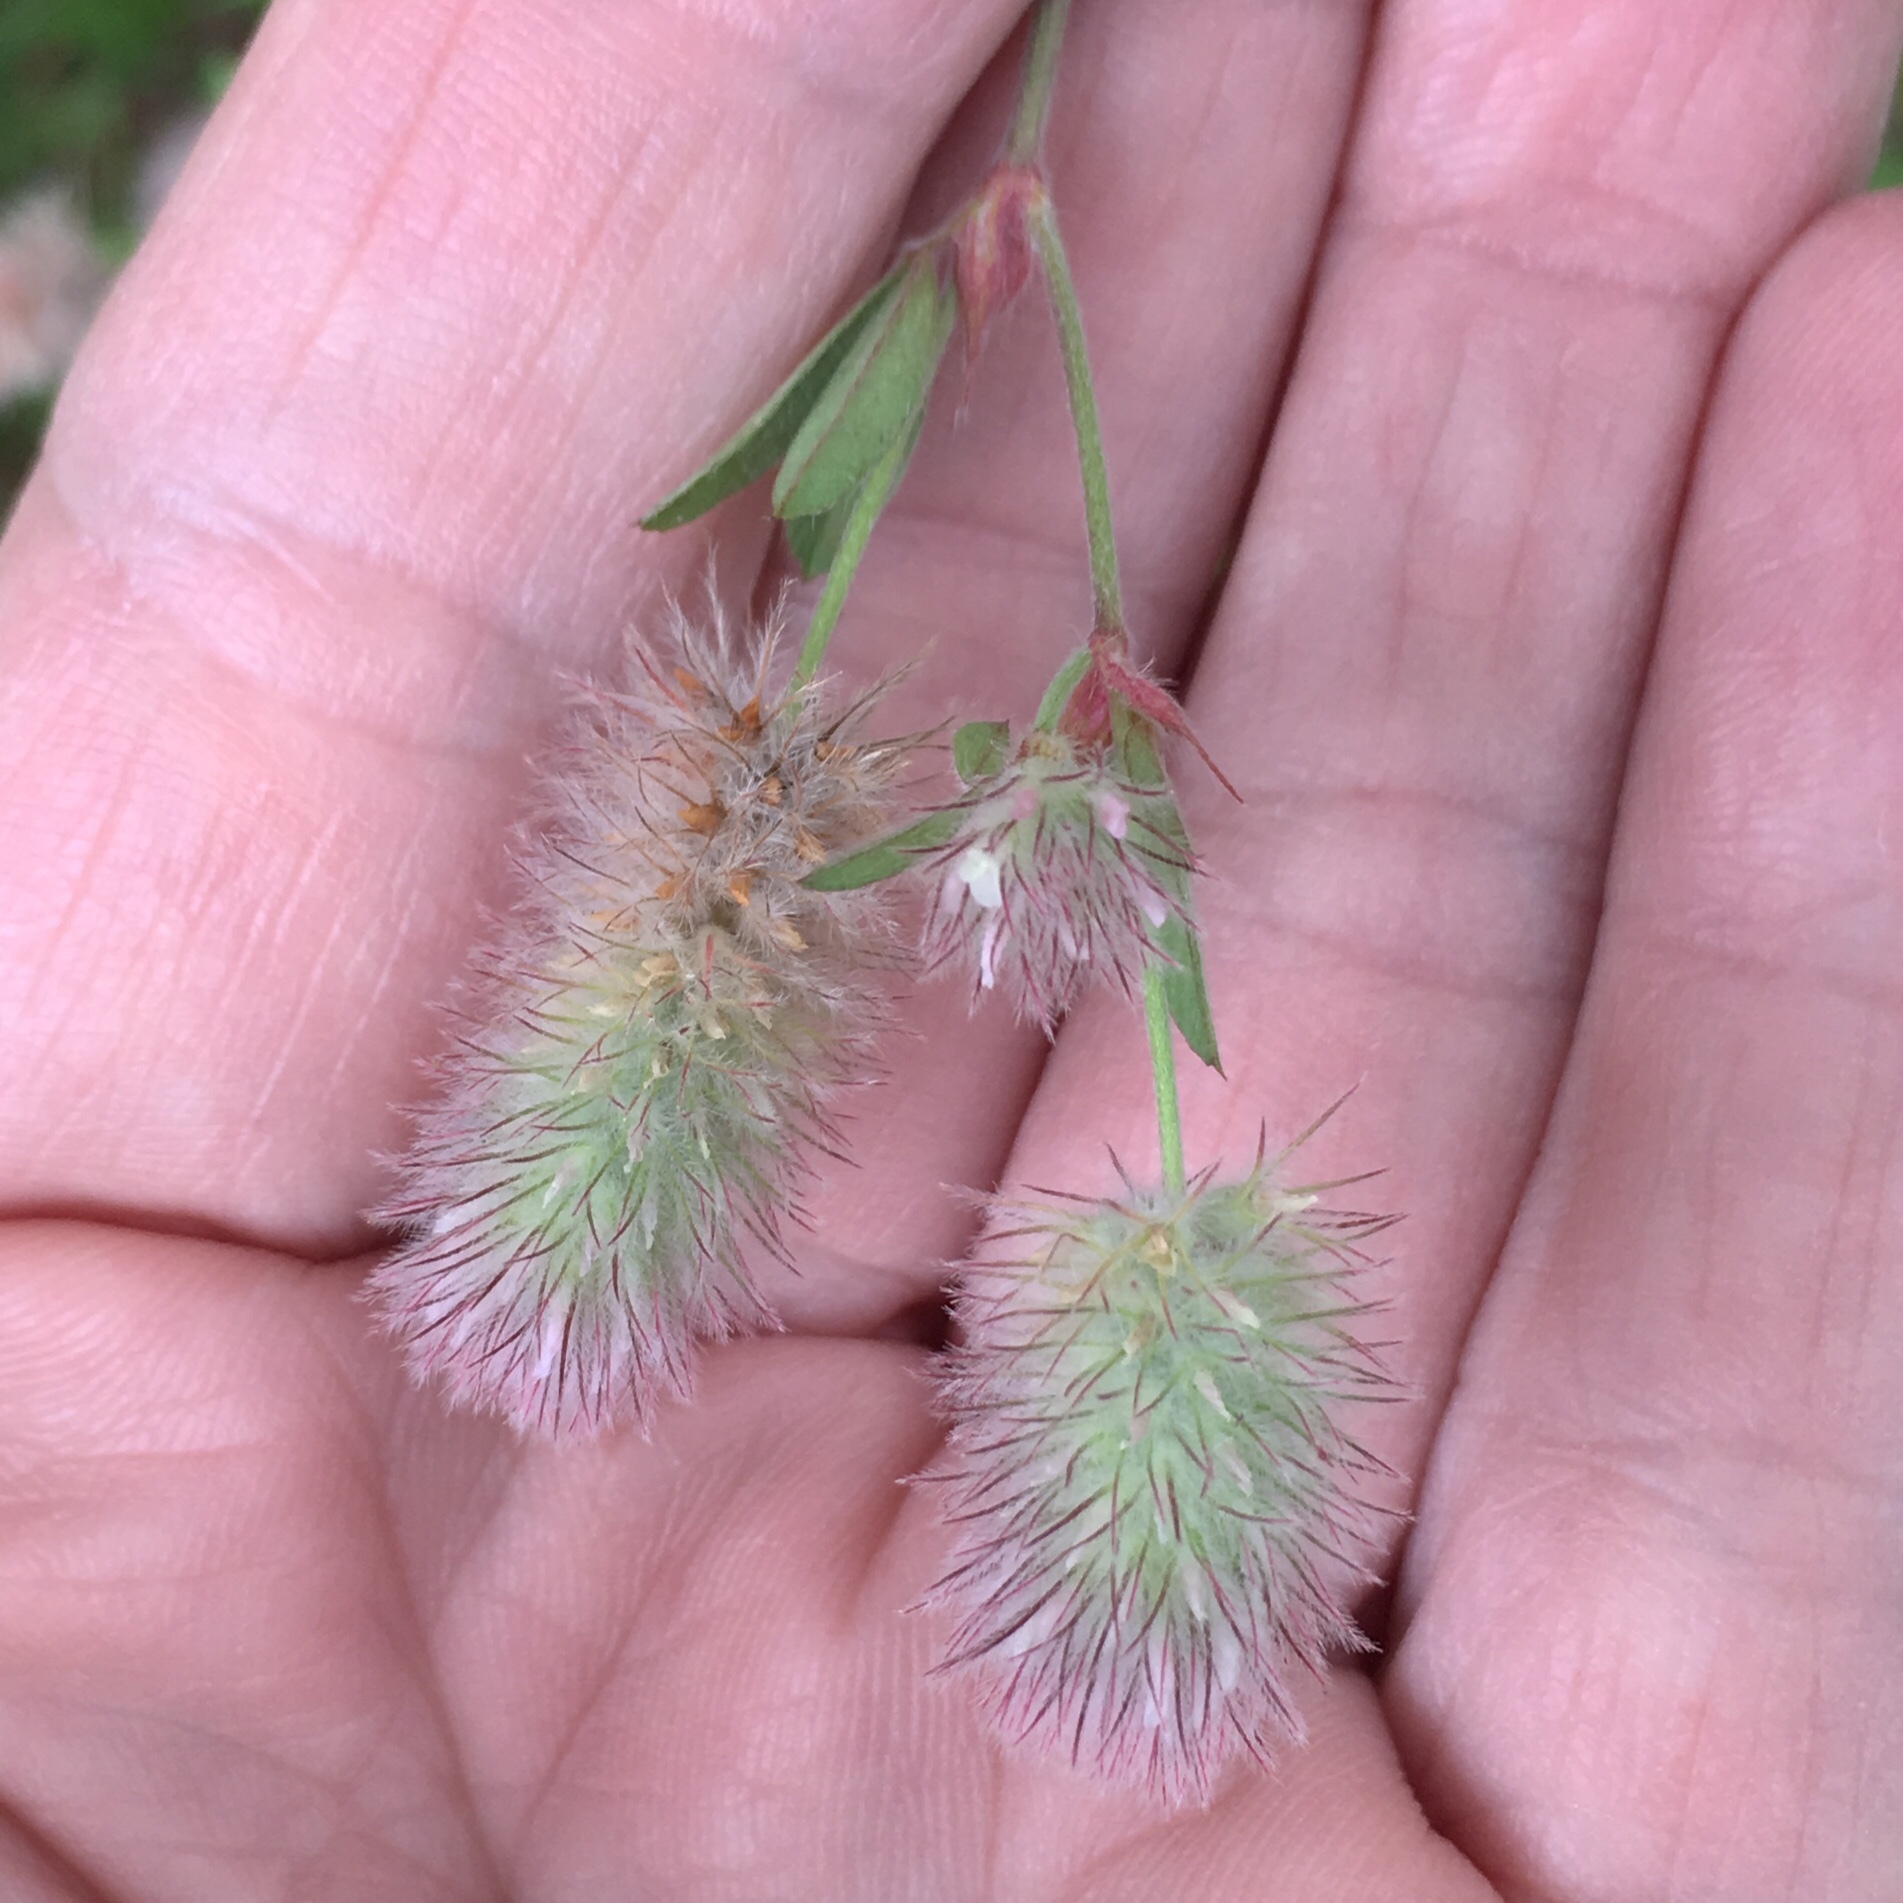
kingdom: Plantae
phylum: Tracheophyta
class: Magnoliopsida
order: Fabales
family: Fabaceae
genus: Trifolium
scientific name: Trifolium arvense
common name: Hare's-foot clover
